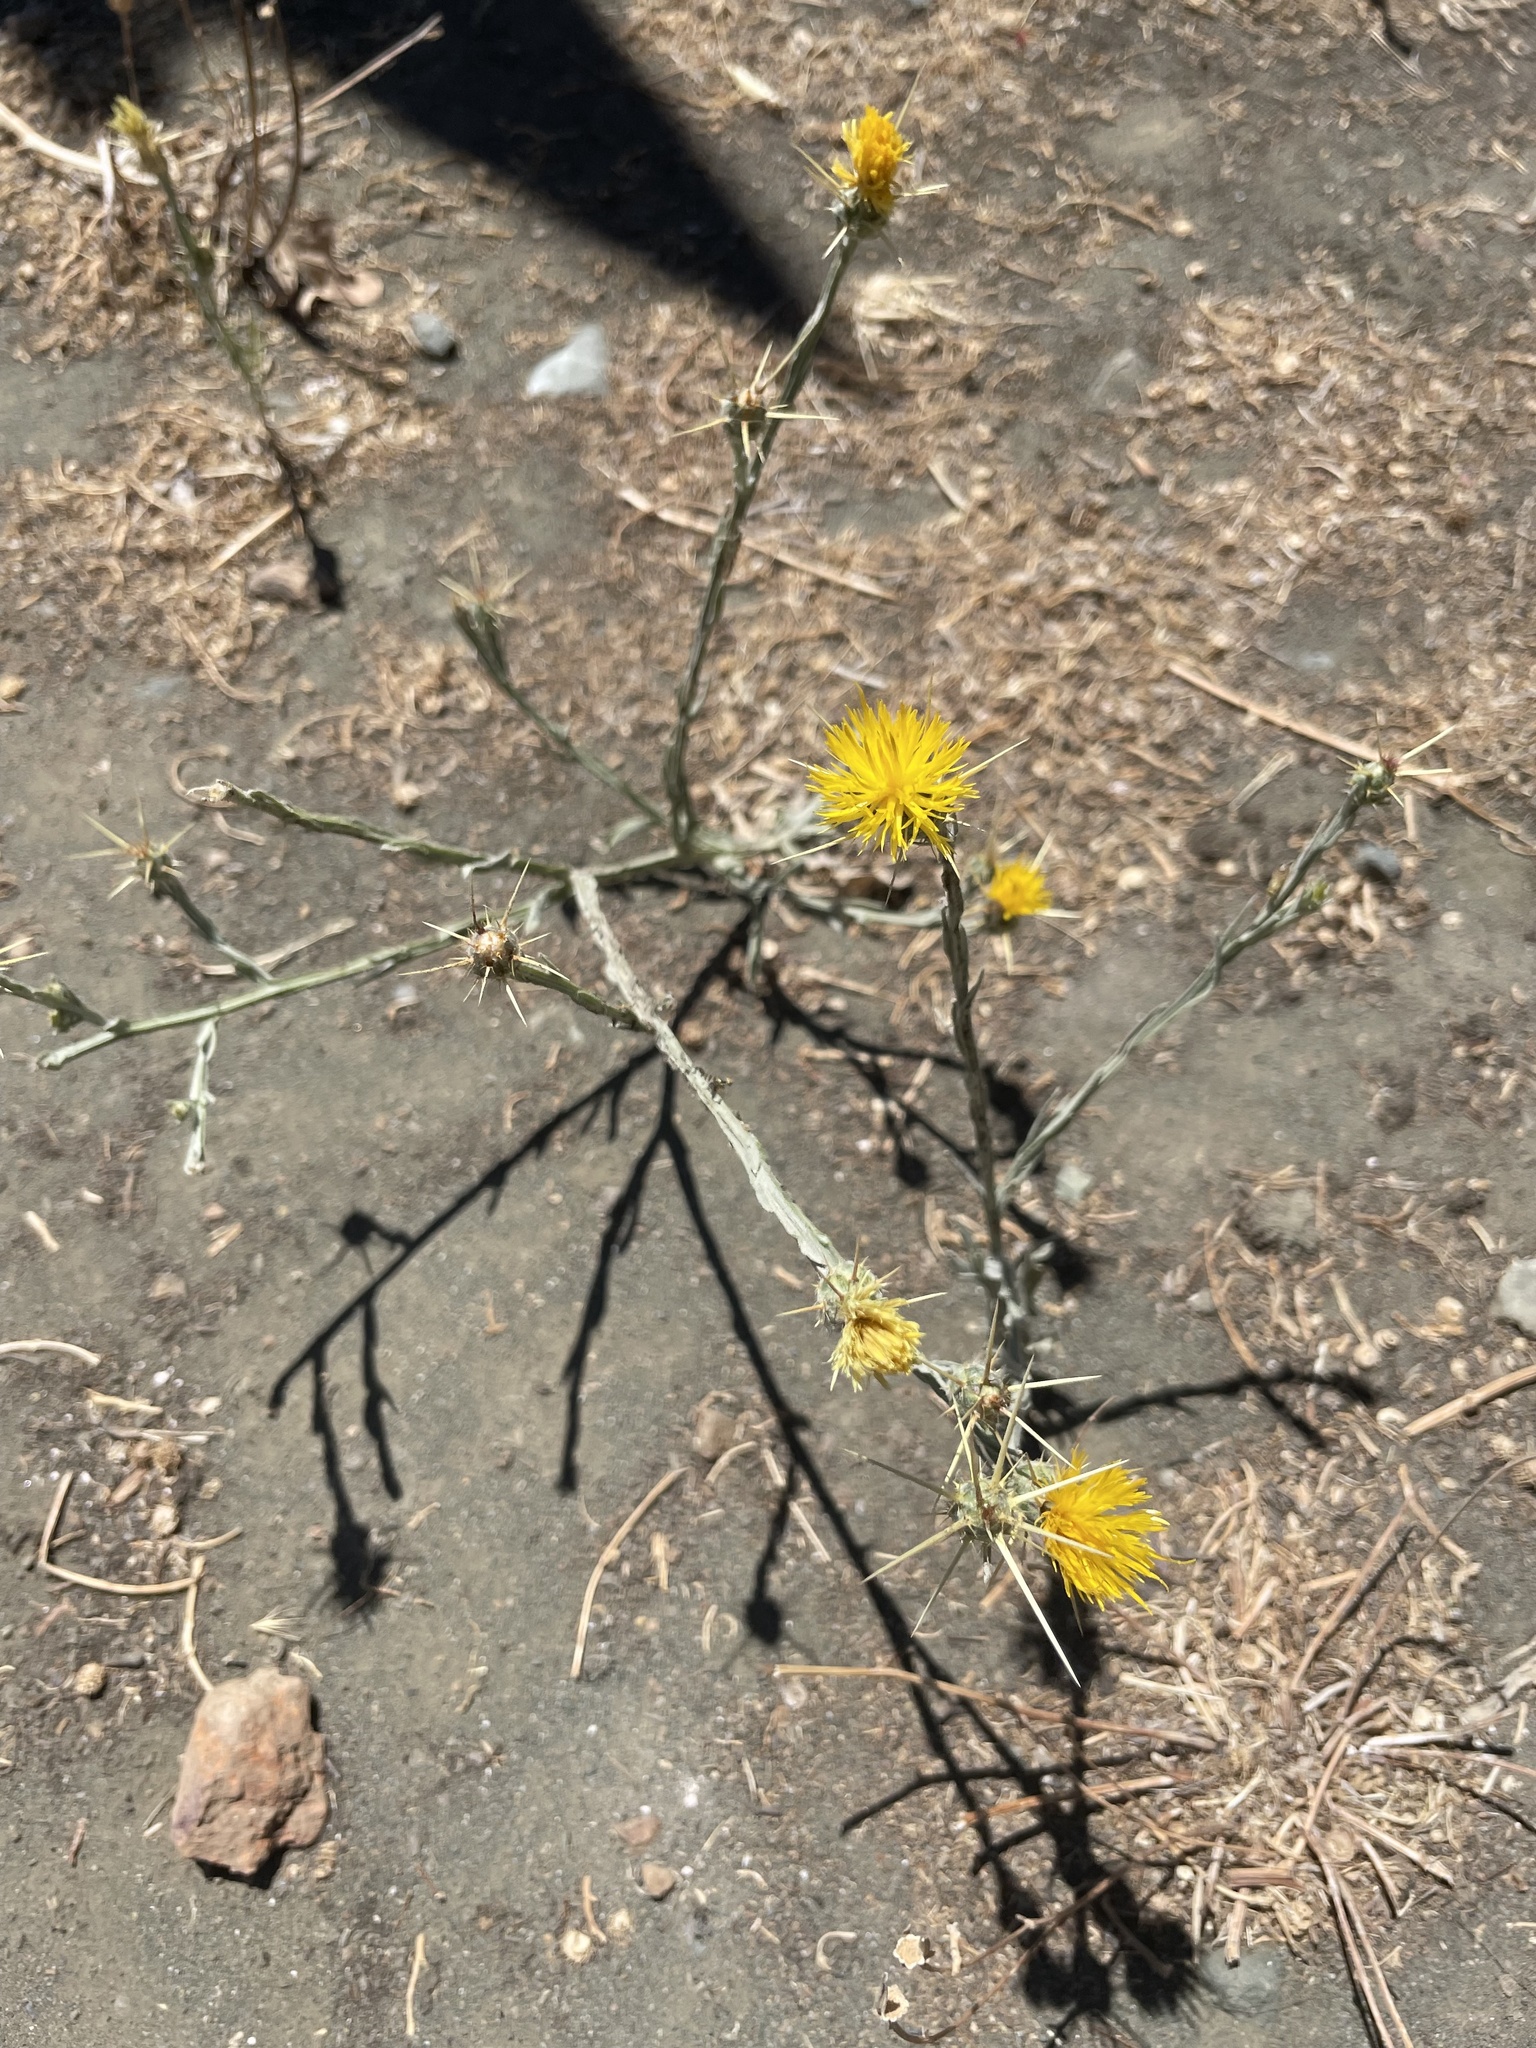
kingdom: Plantae
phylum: Tracheophyta
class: Magnoliopsida
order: Asterales
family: Asteraceae
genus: Centaurea
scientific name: Centaurea solstitialis
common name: Yellow star-thistle
